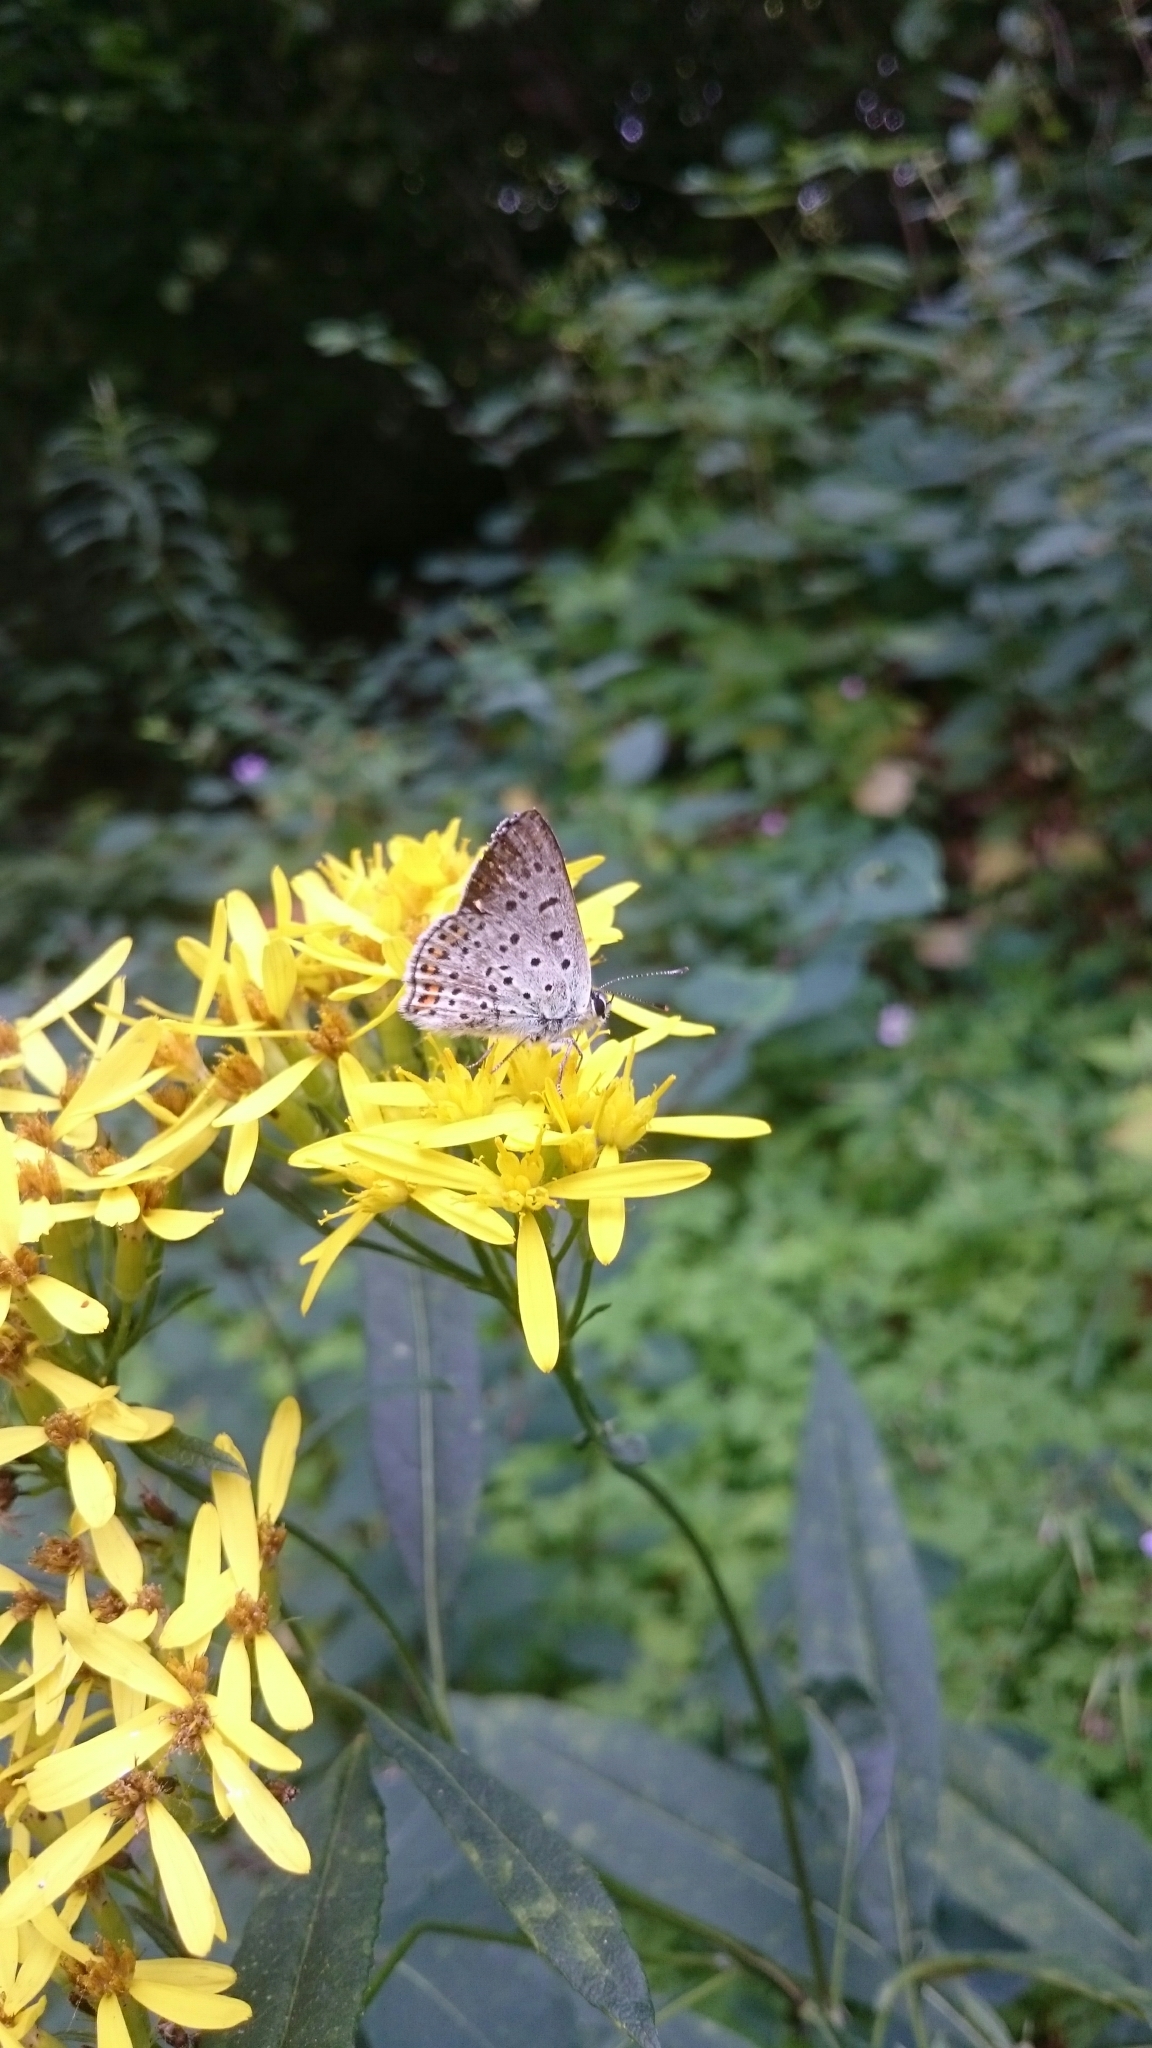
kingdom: Animalia
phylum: Arthropoda
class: Insecta
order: Lepidoptera
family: Lycaenidae
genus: Loweia
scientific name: Loweia tityrus
